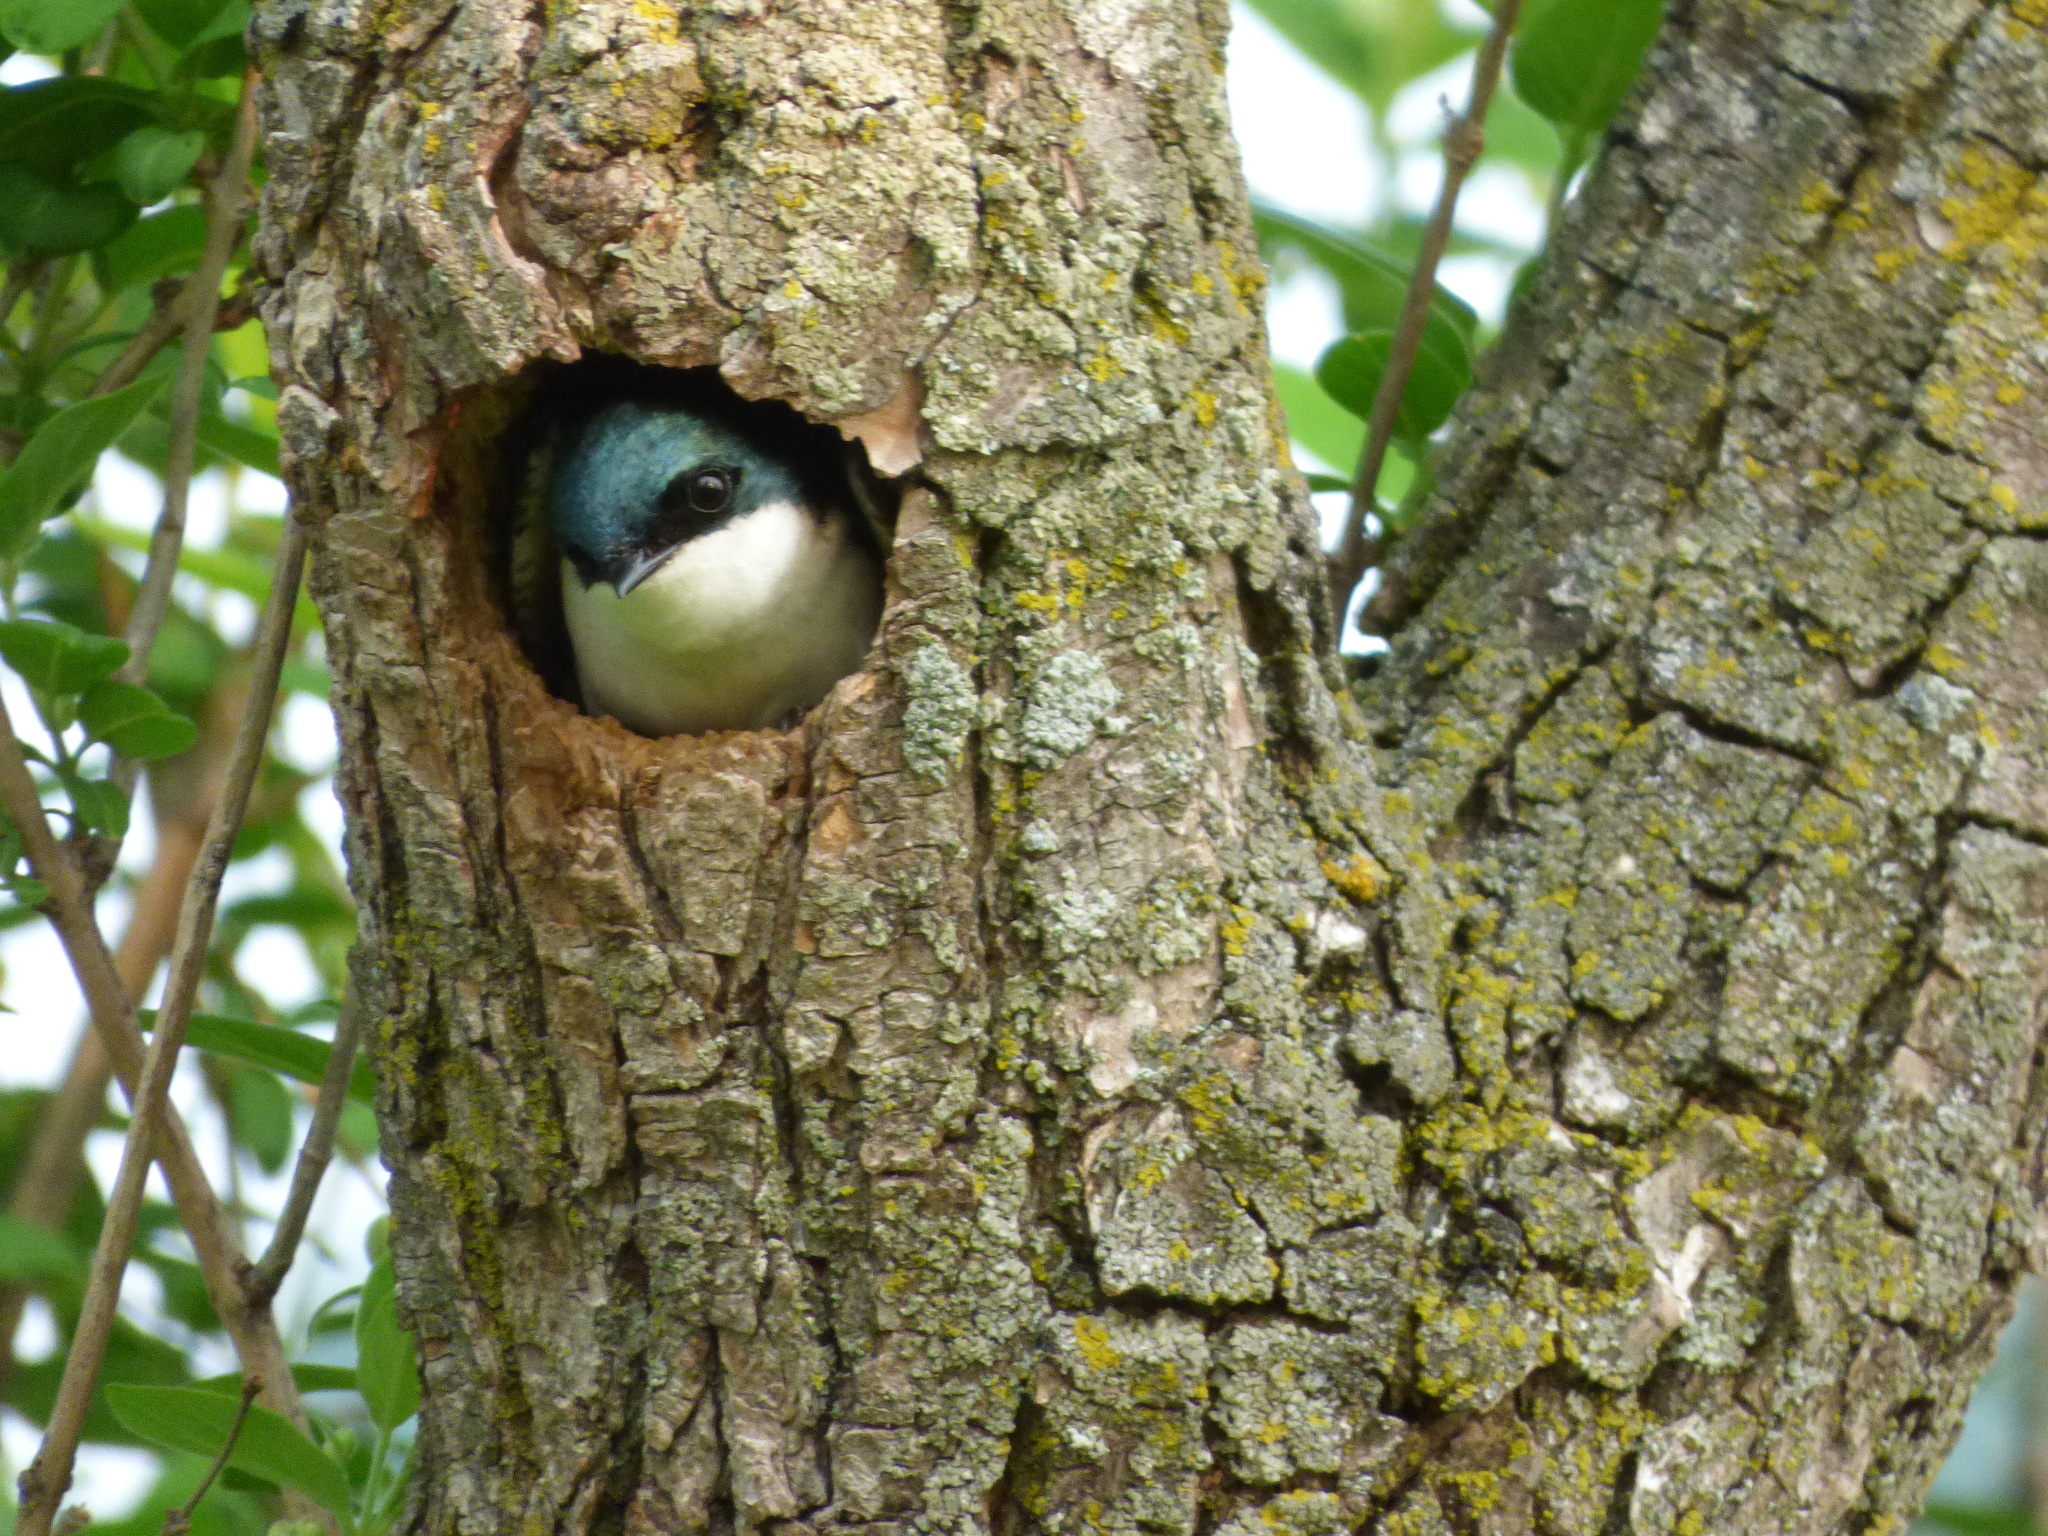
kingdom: Animalia
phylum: Chordata
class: Aves
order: Passeriformes
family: Hirundinidae
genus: Tachycineta
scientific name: Tachycineta bicolor
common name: Tree swallow
